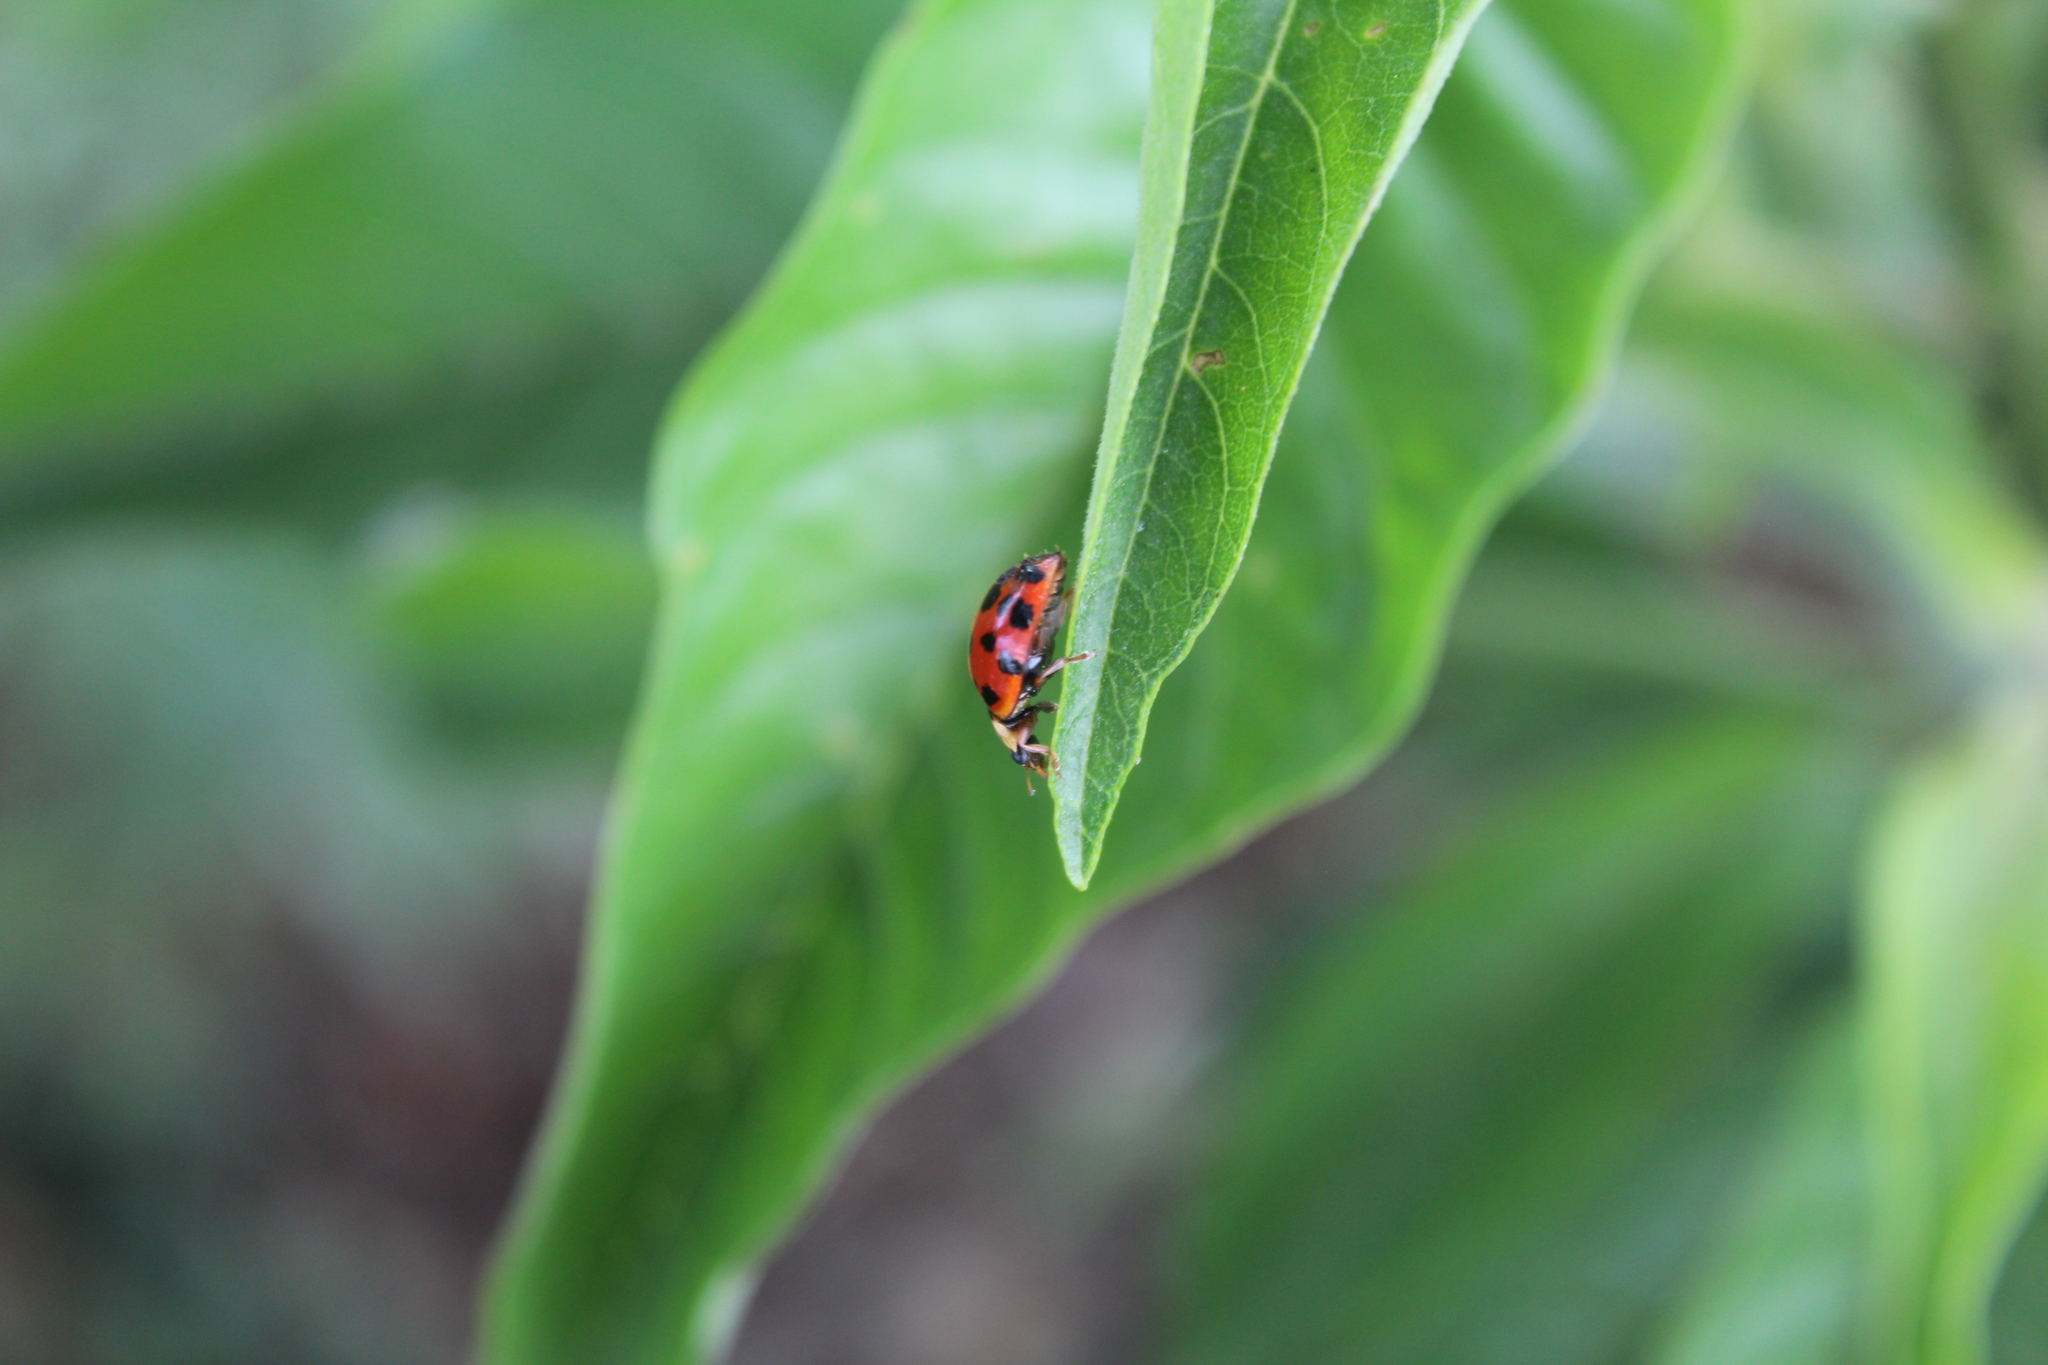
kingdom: Animalia
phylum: Arthropoda
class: Insecta
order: Coleoptera
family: Coccinellidae
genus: Harmonia
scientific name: Harmonia axyridis
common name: Harlequin ladybird
